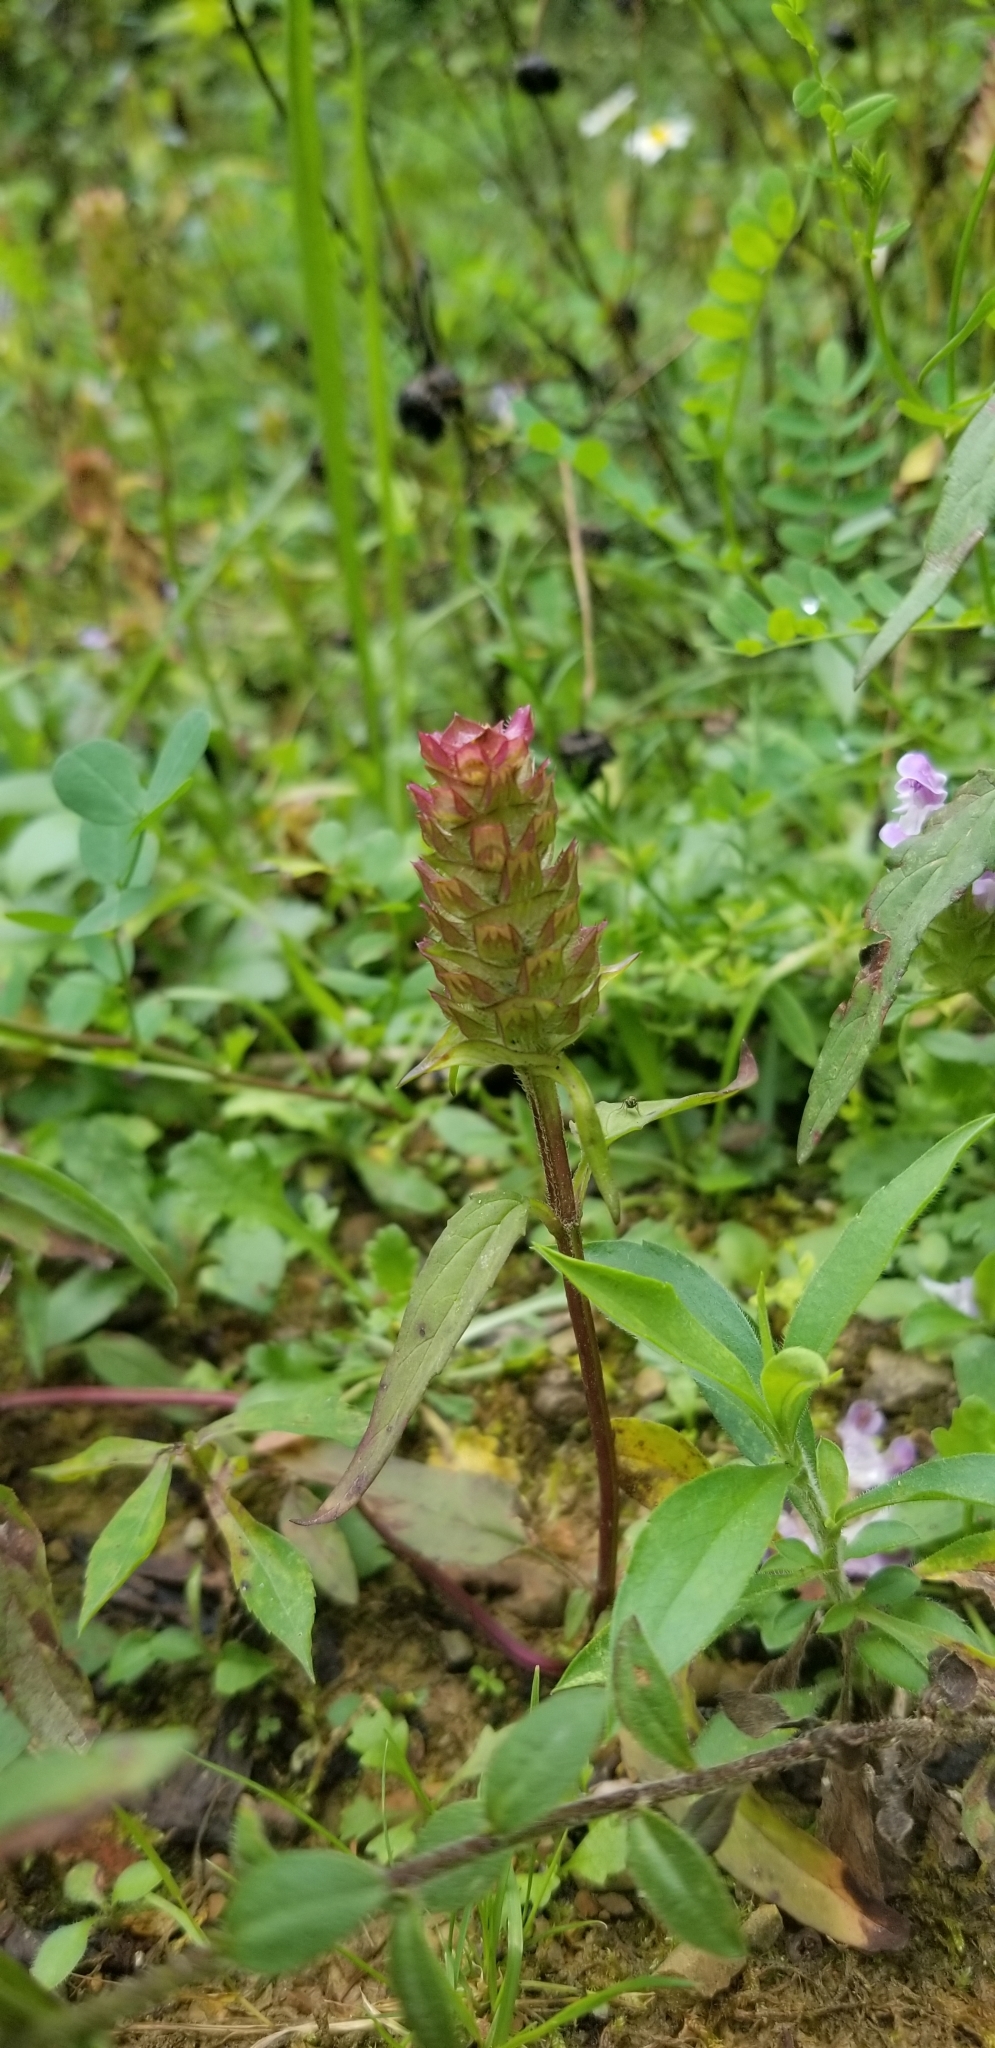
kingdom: Plantae
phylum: Tracheophyta
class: Magnoliopsida
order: Lamiales
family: Lamiaceae
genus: Prunella
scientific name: Prunella vulgaris
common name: Heal-all
